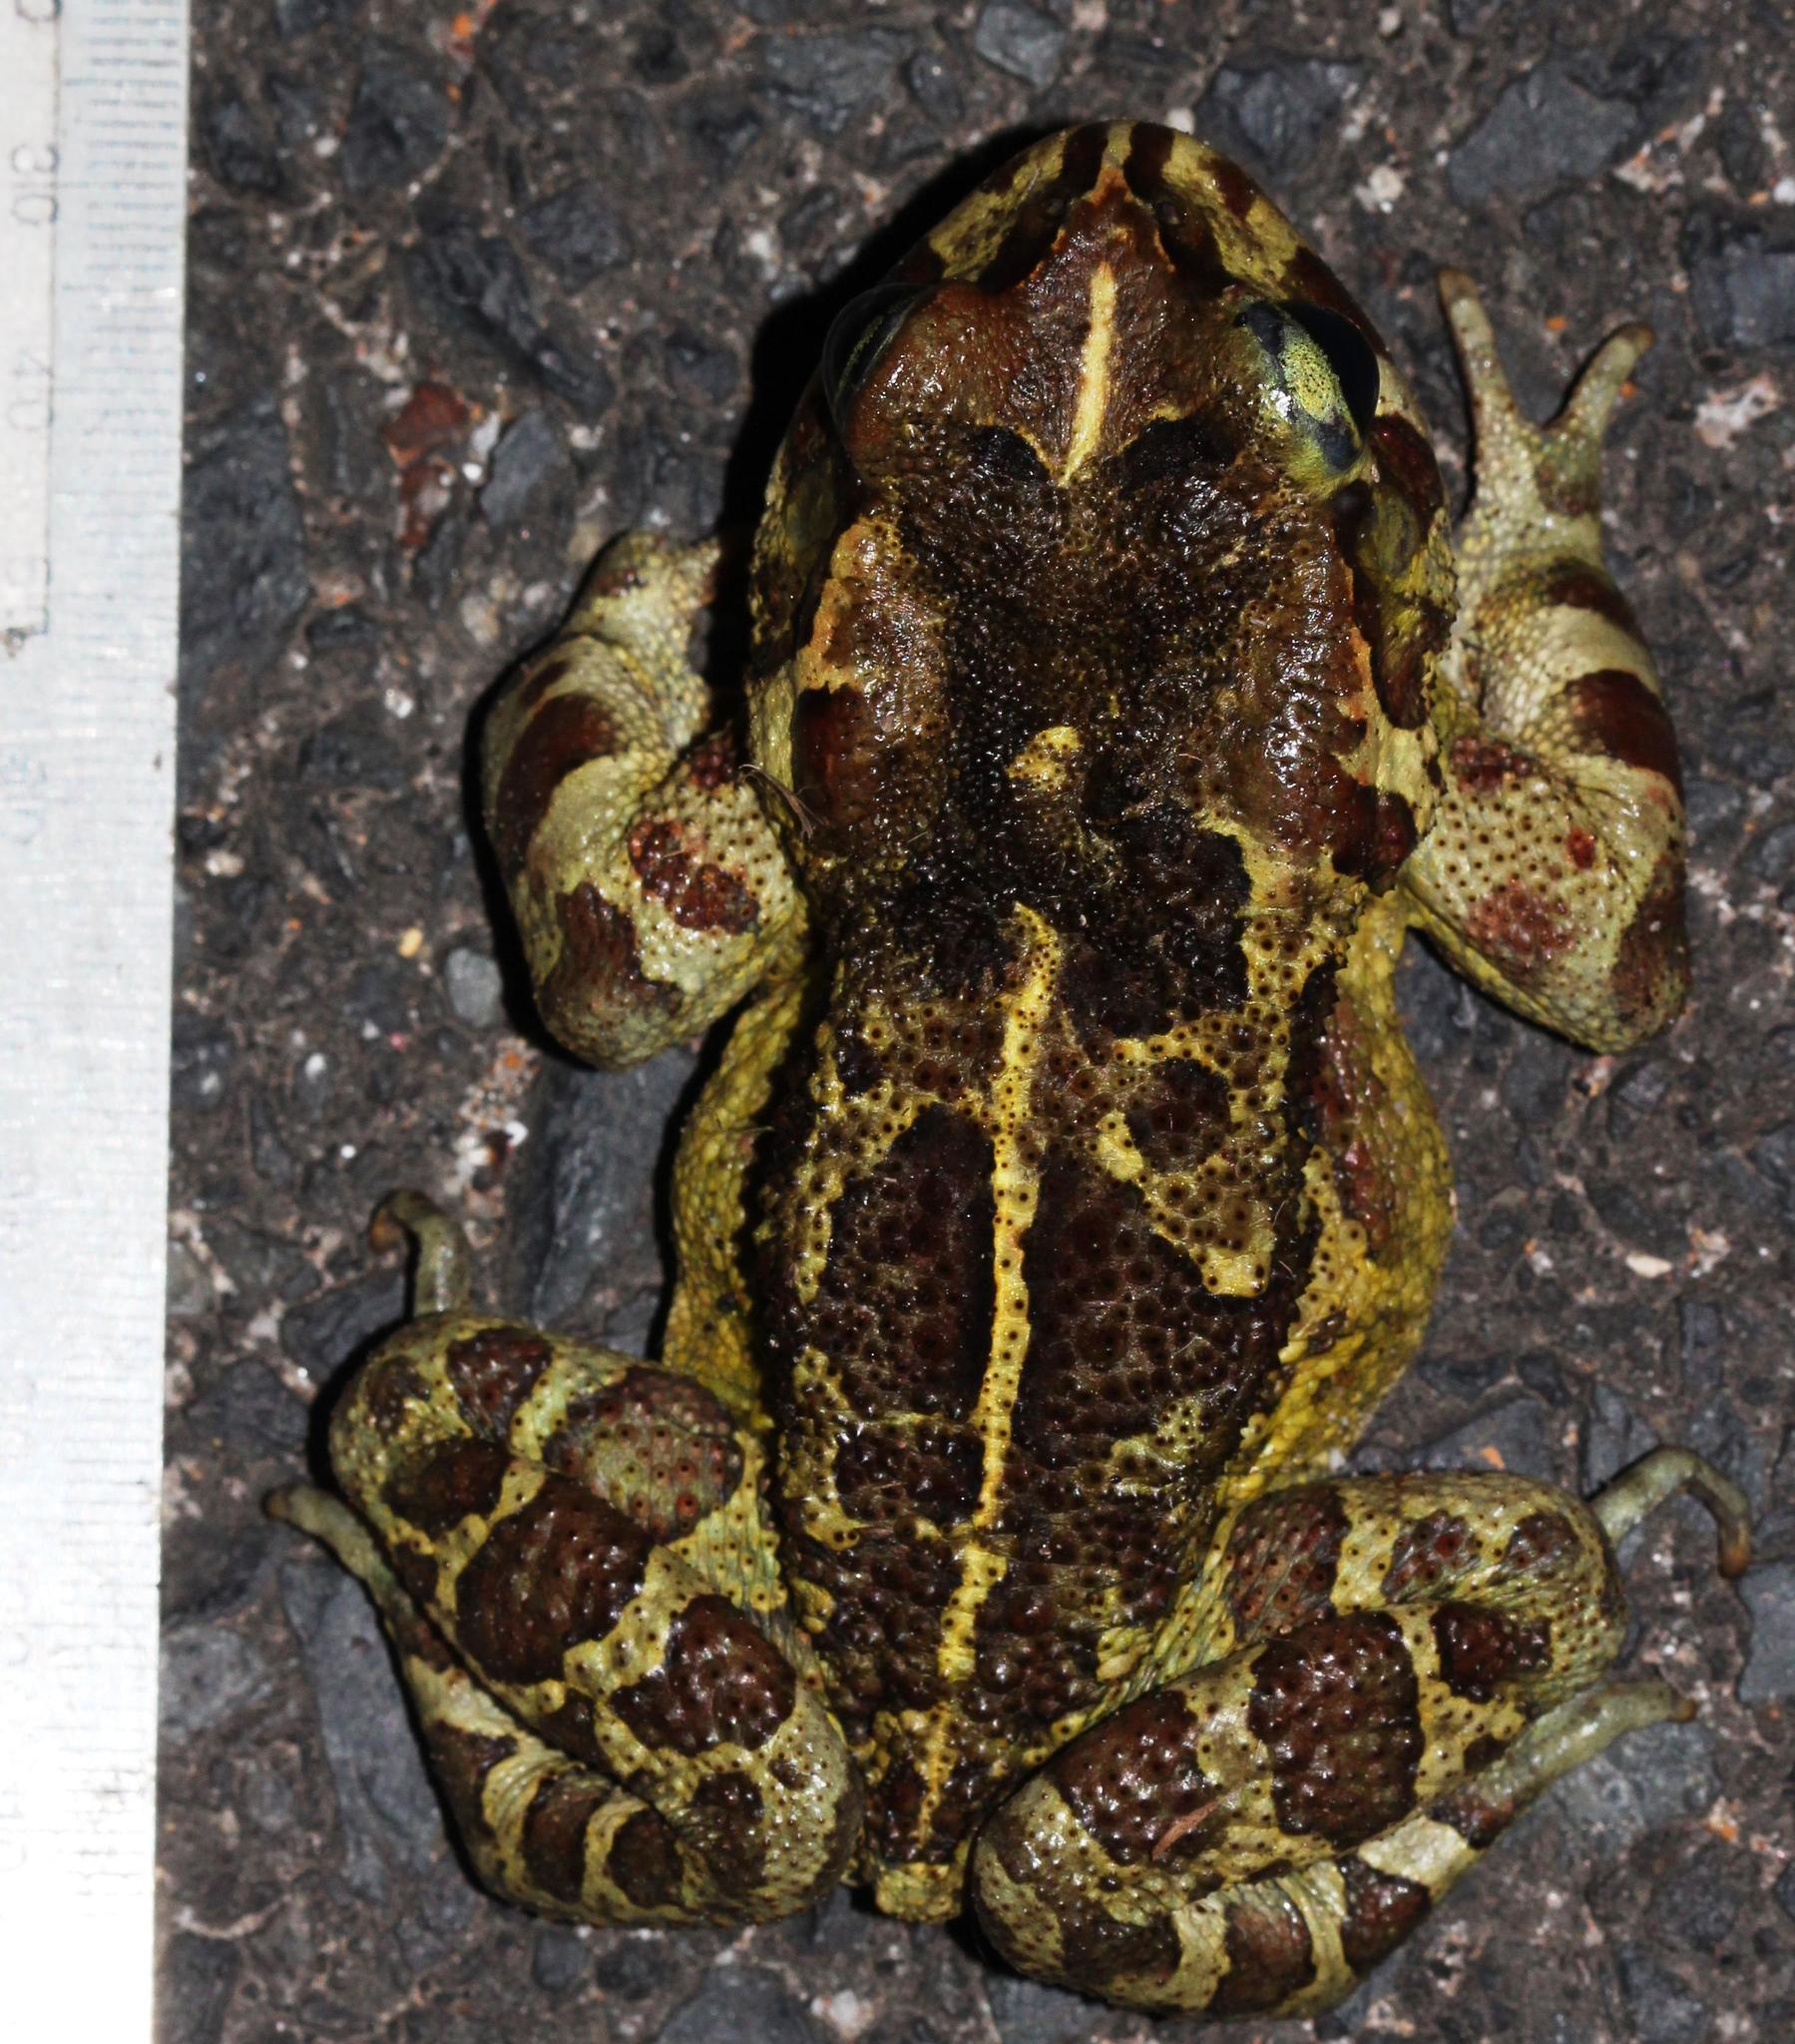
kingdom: Animalia
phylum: Chordata
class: Amphibia
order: Anura
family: Bufonidae
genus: Sclerophrys
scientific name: Sclerophrys pantherina
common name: Panther toad
